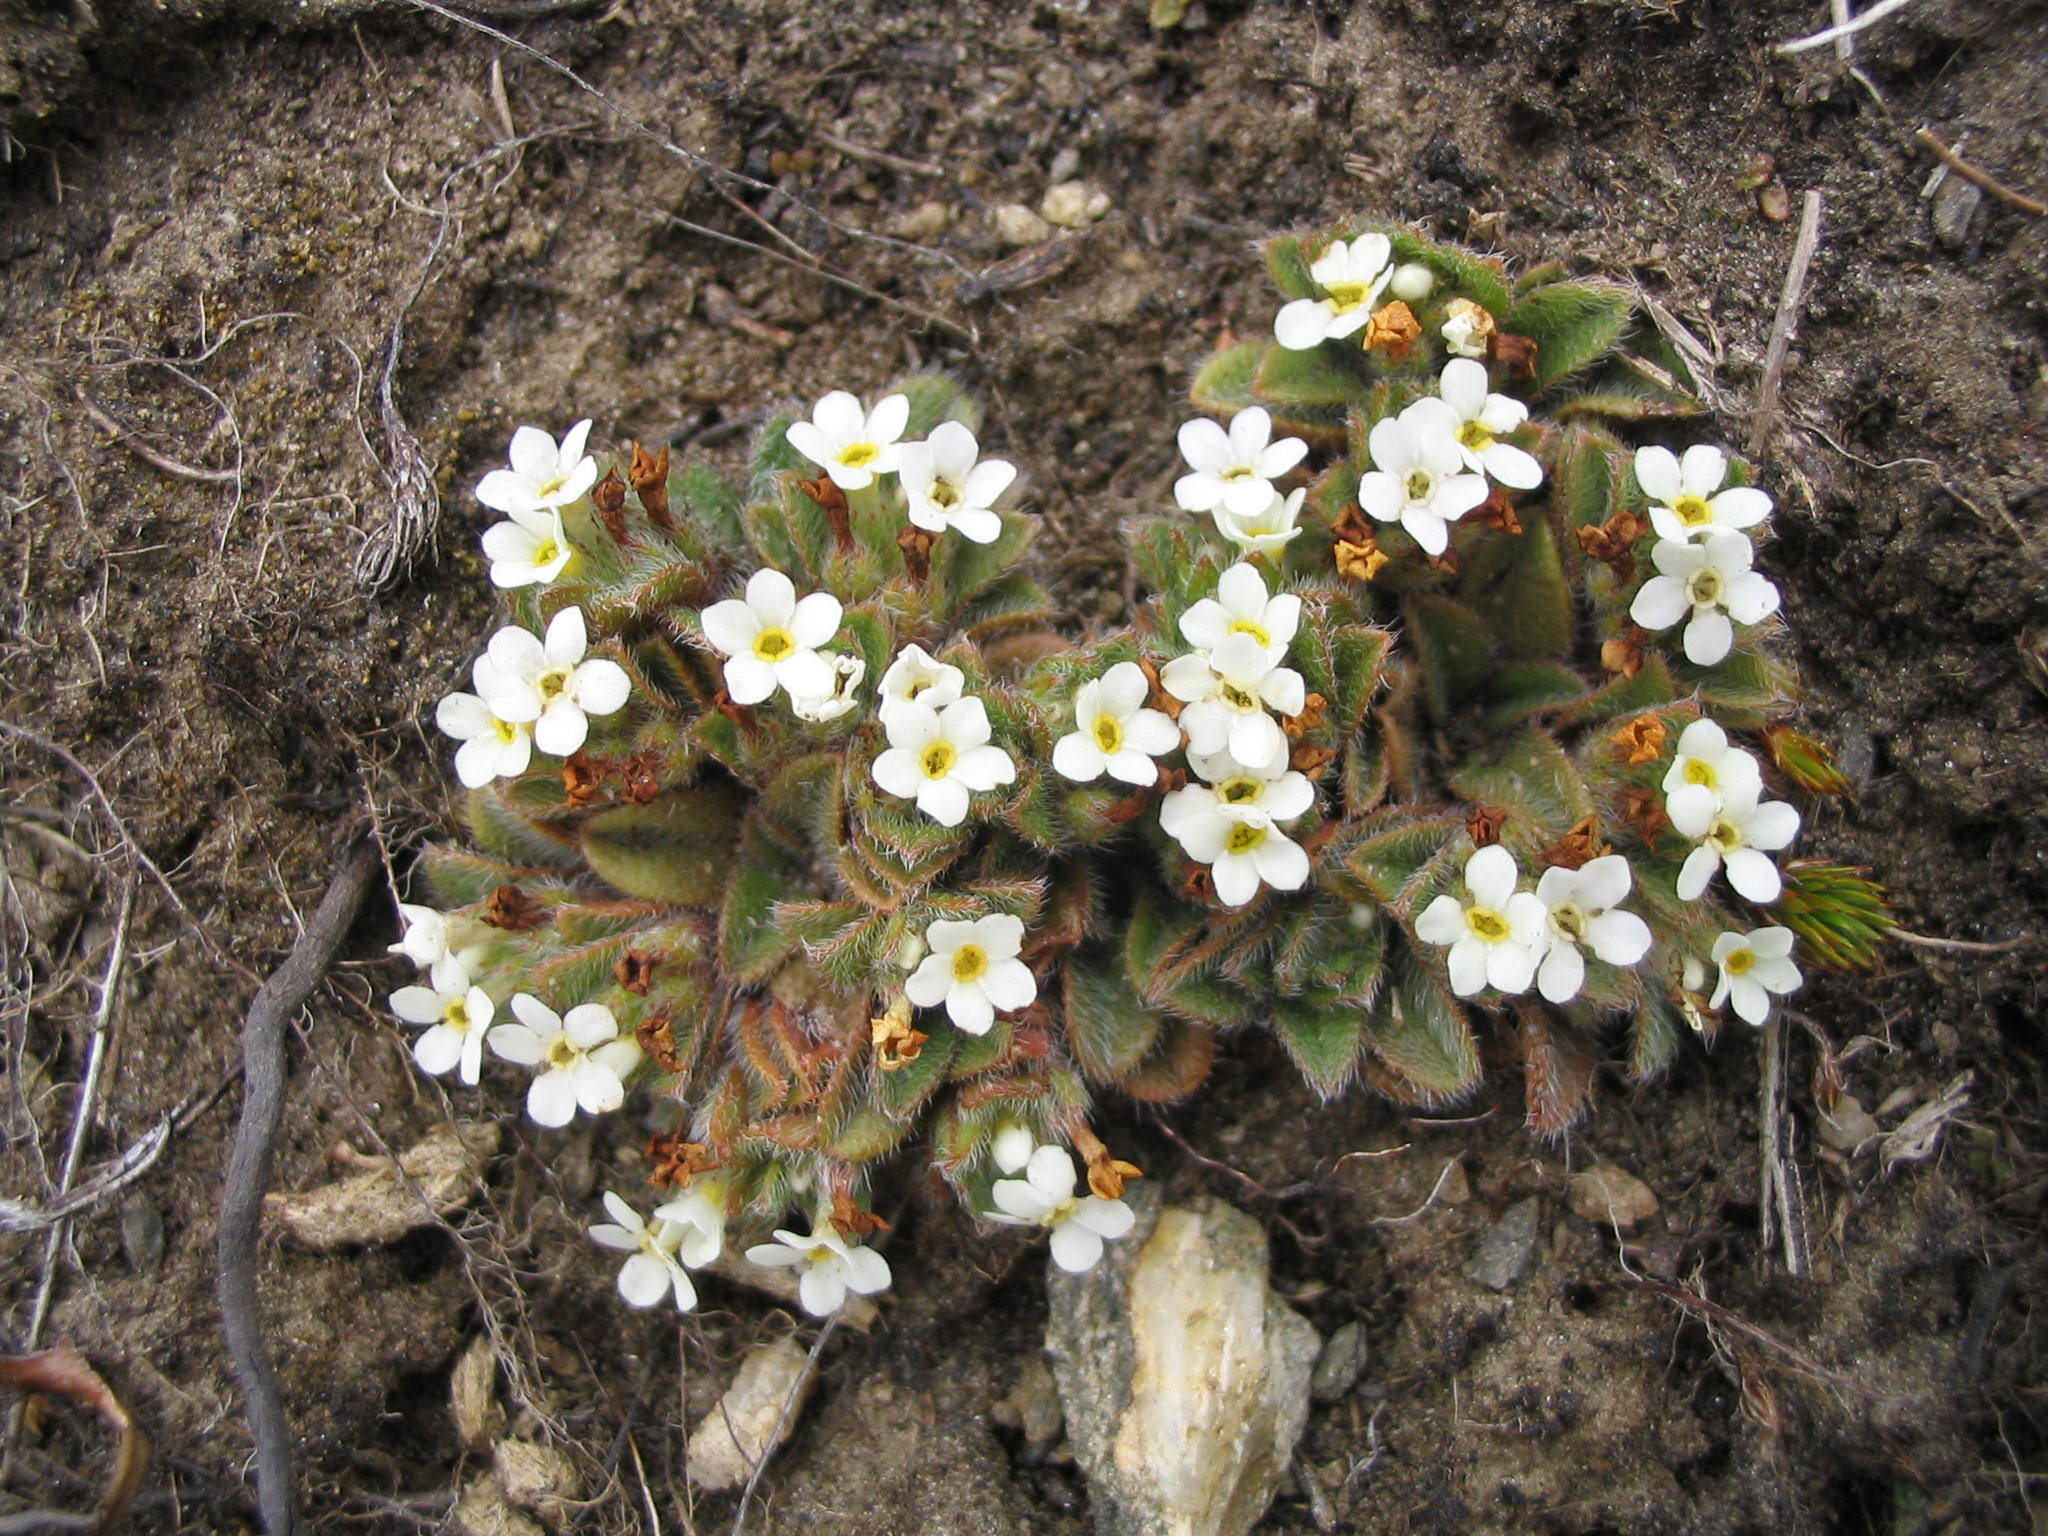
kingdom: Plantae
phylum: Tracheophyta
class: Magnoliopsida
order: Boraginales
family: Boraginaceae
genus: Myosotis
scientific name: Myosotis lyallii
